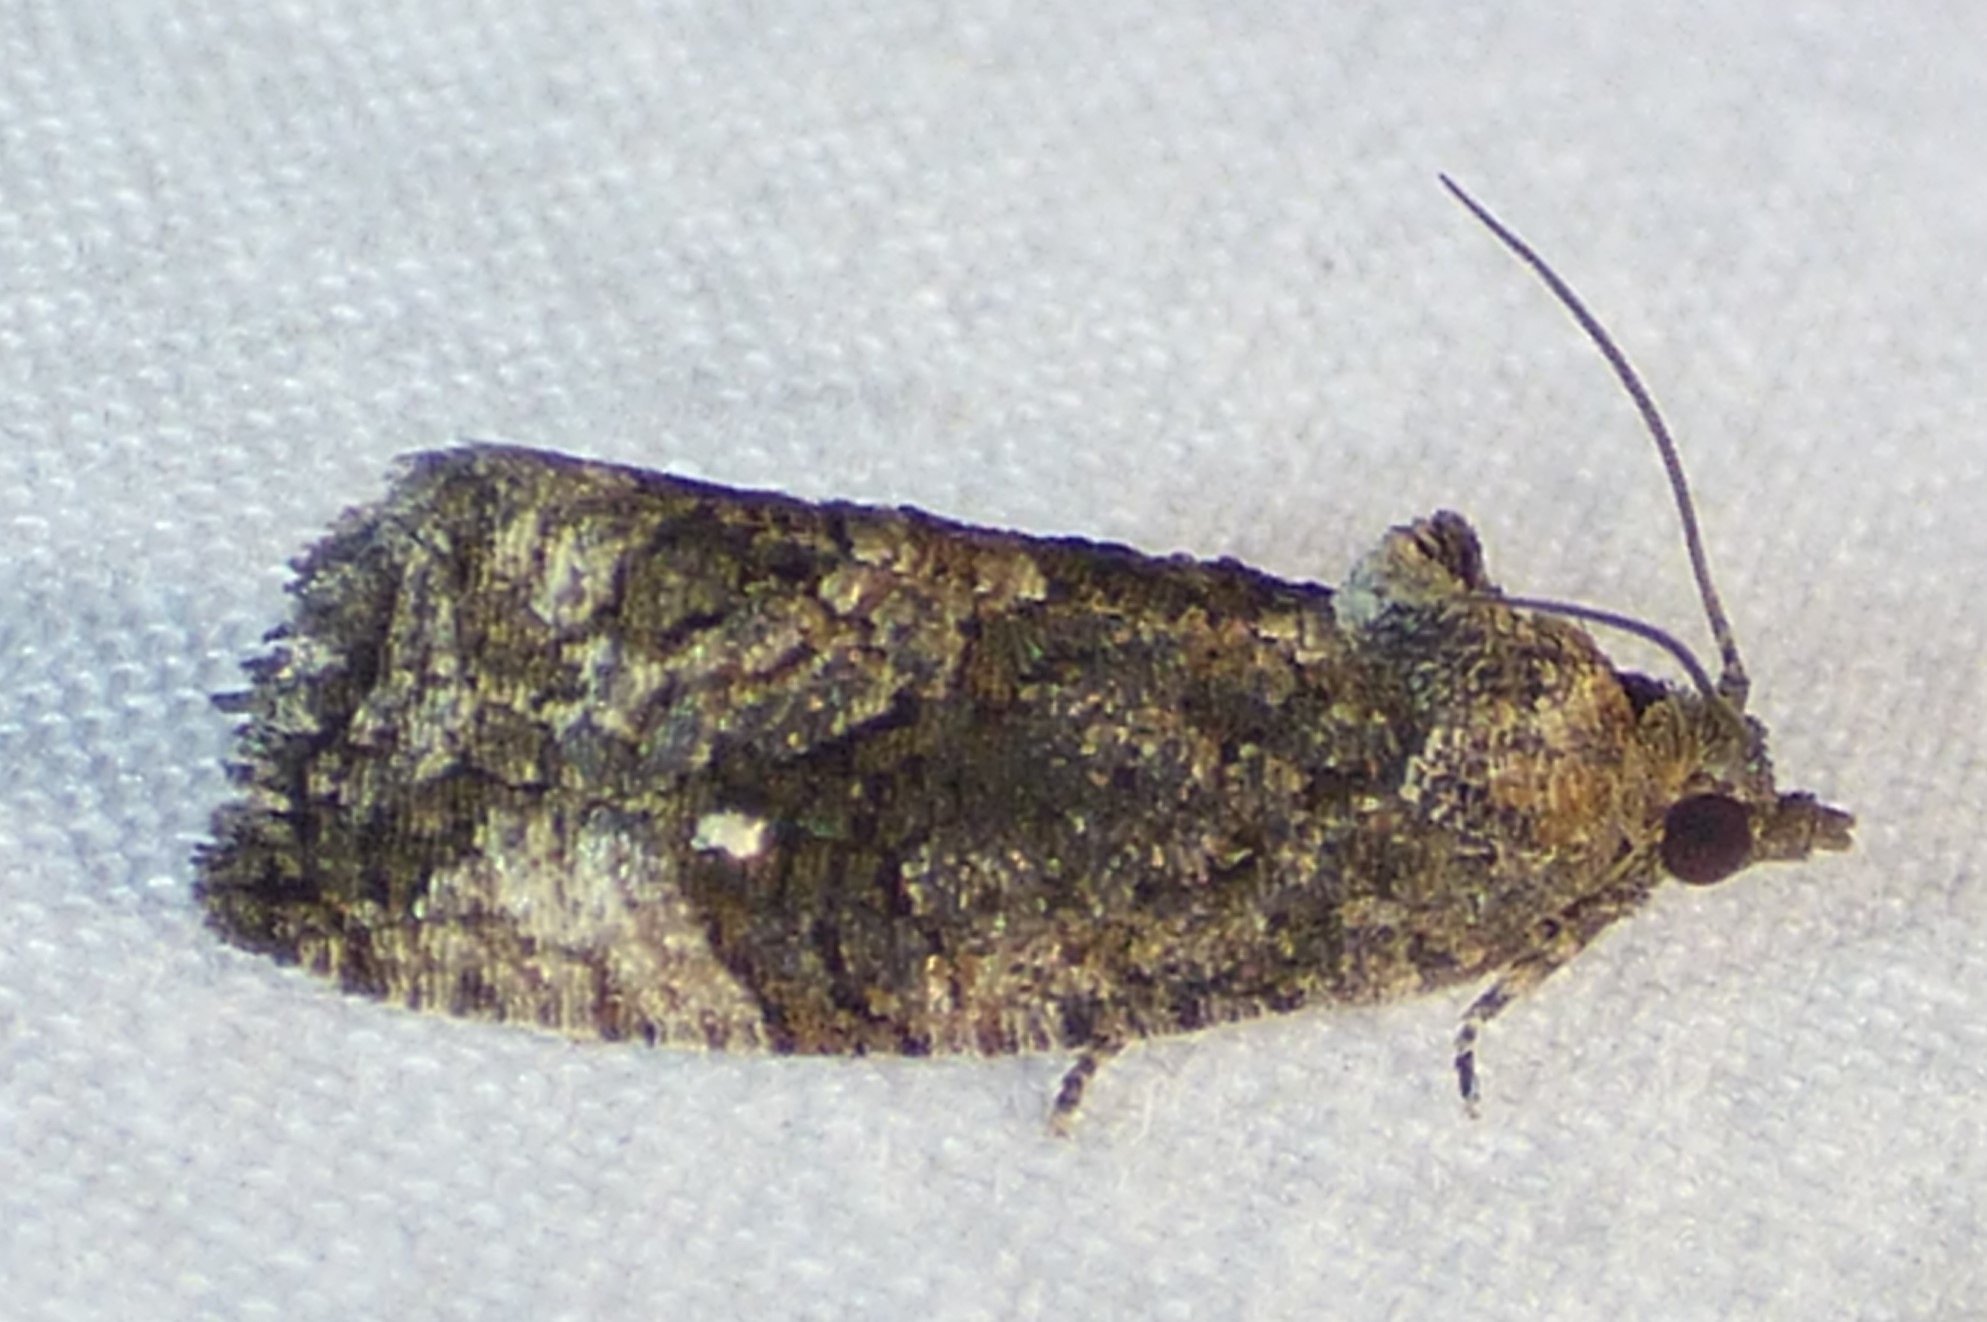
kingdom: Animalia
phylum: Arthropoda
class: Insecta
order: Lepidoptera
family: Tortricidae
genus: Gymnandrosoma
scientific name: Gymnandrosoma punctidiscanum
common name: Dotted ecdytolopha moth
